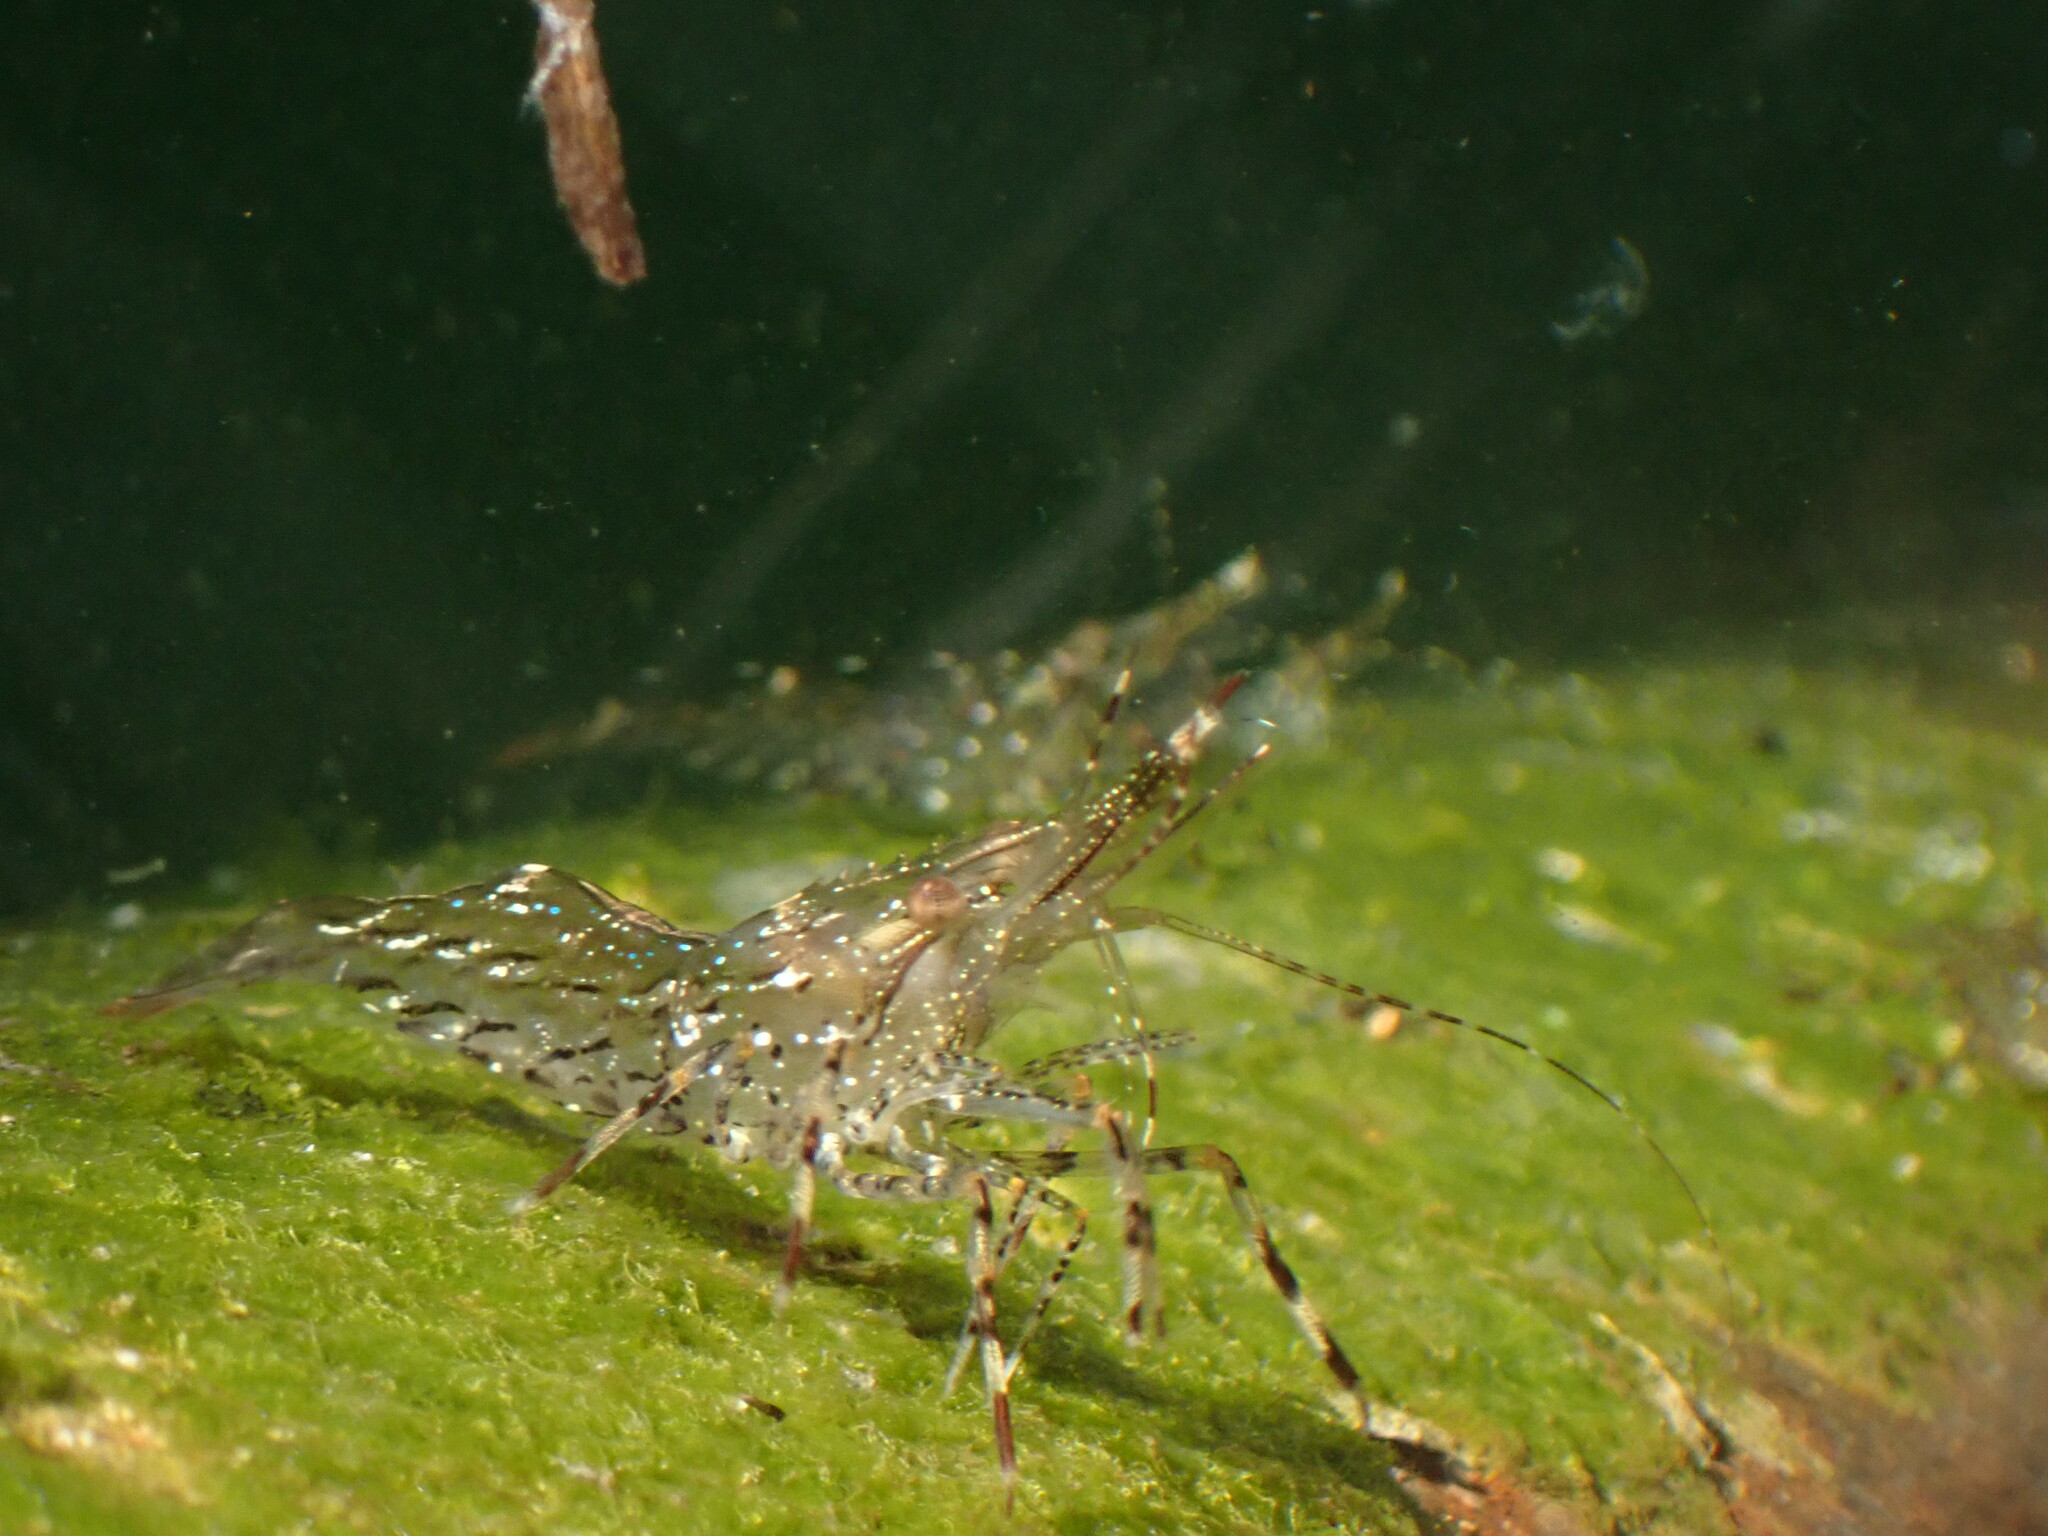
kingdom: Animalia
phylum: Arthropoda
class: Malacostraca
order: Decapoda
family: Pandalidae
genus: Pandalus
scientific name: Pandalus danae
